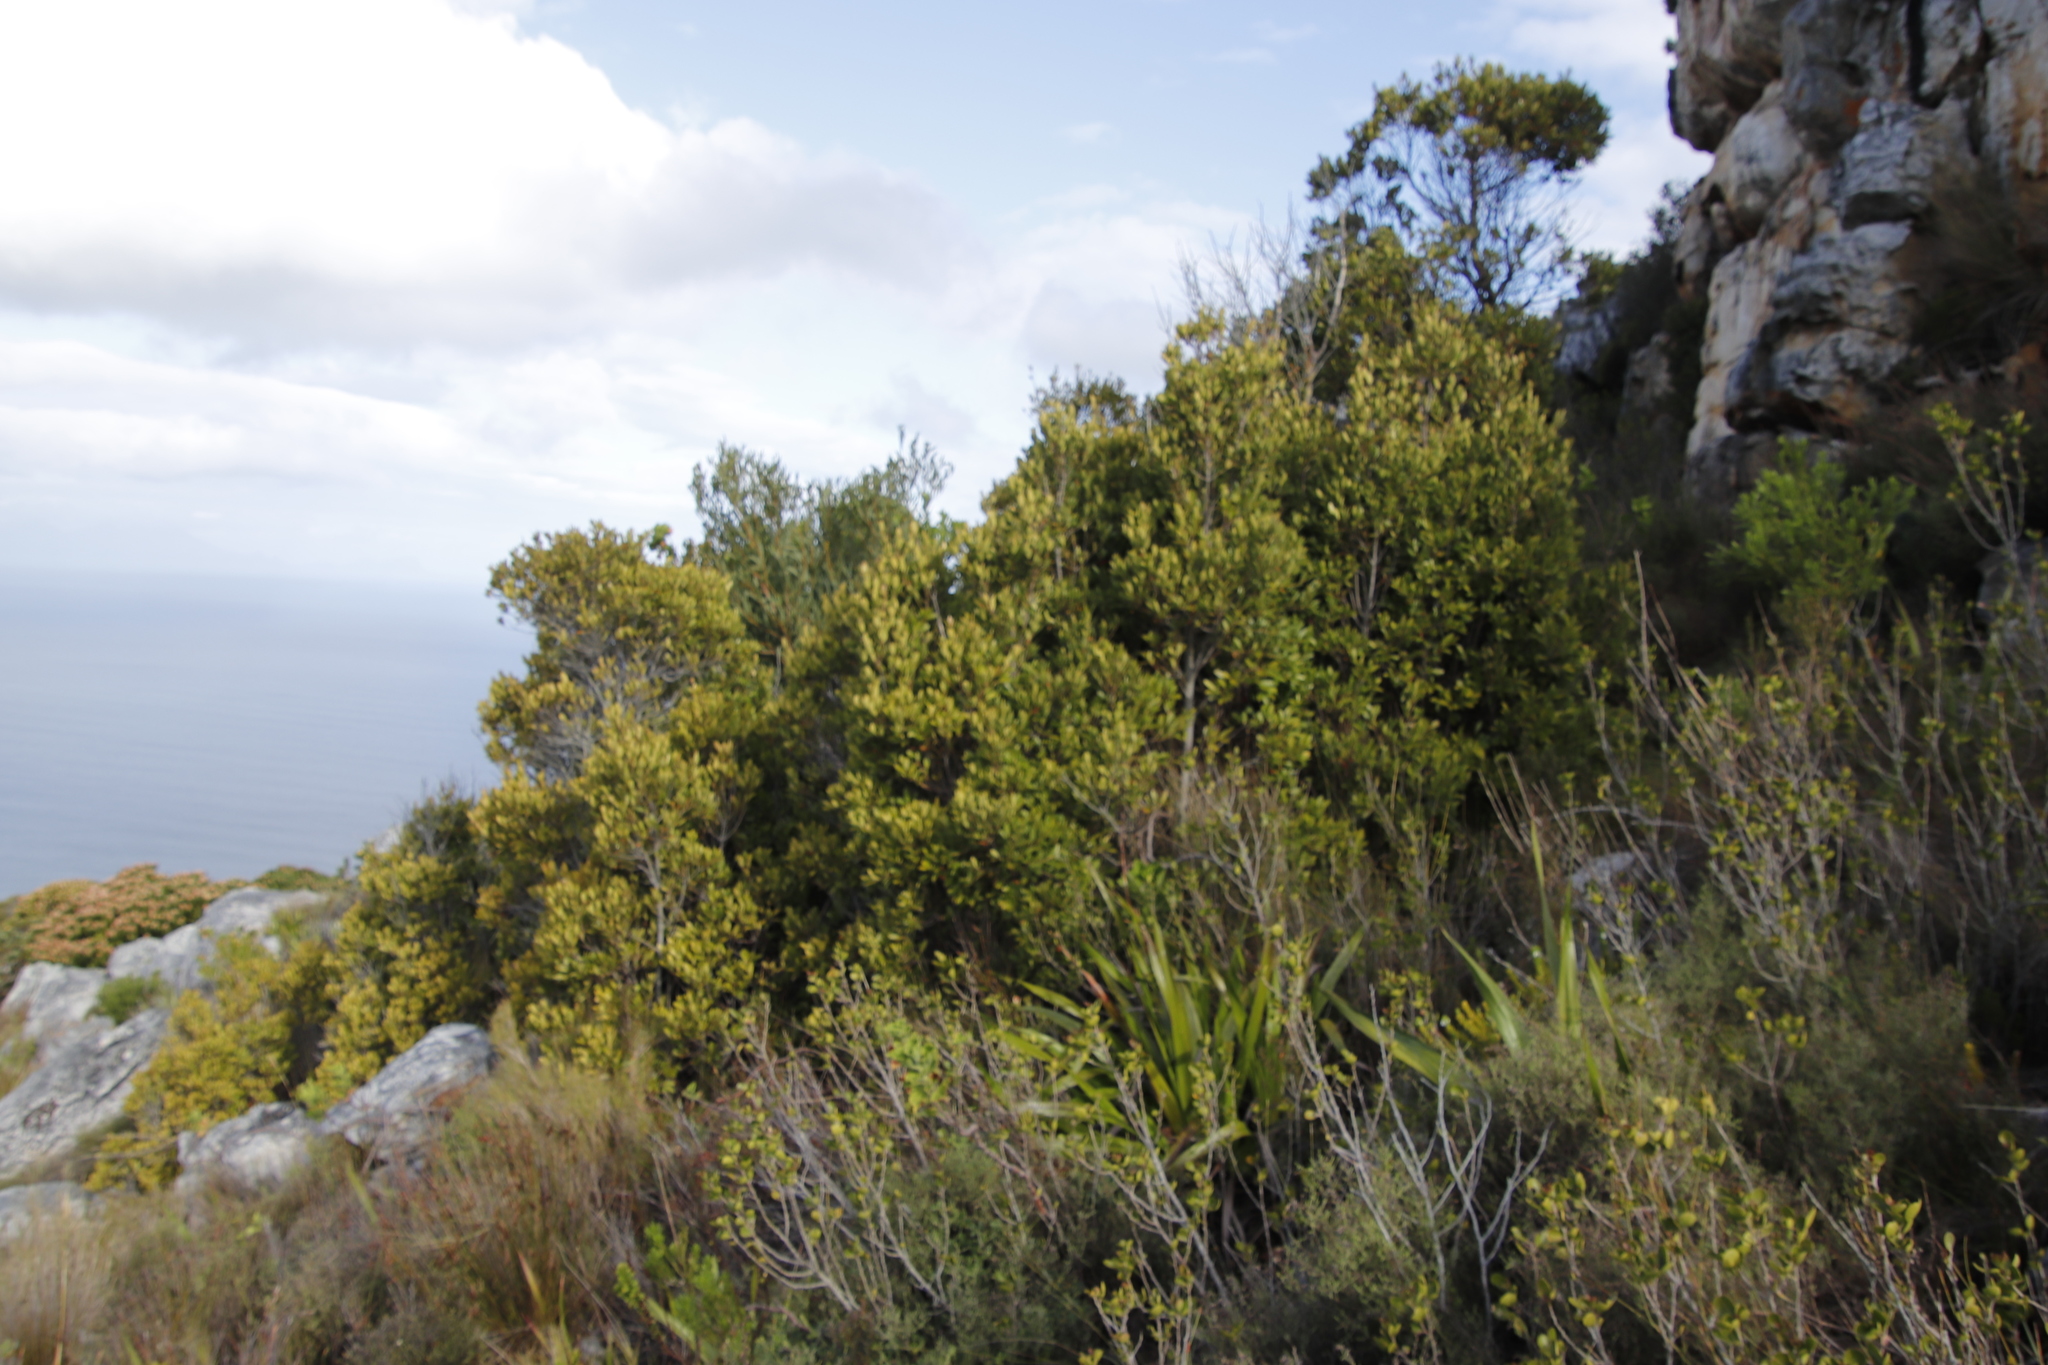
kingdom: Plantae
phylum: Tracheophyta
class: Magnoliopsida
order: Fabales
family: Fabaceae
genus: Acacia
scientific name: Acacia cyclops
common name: Coastal wattle
